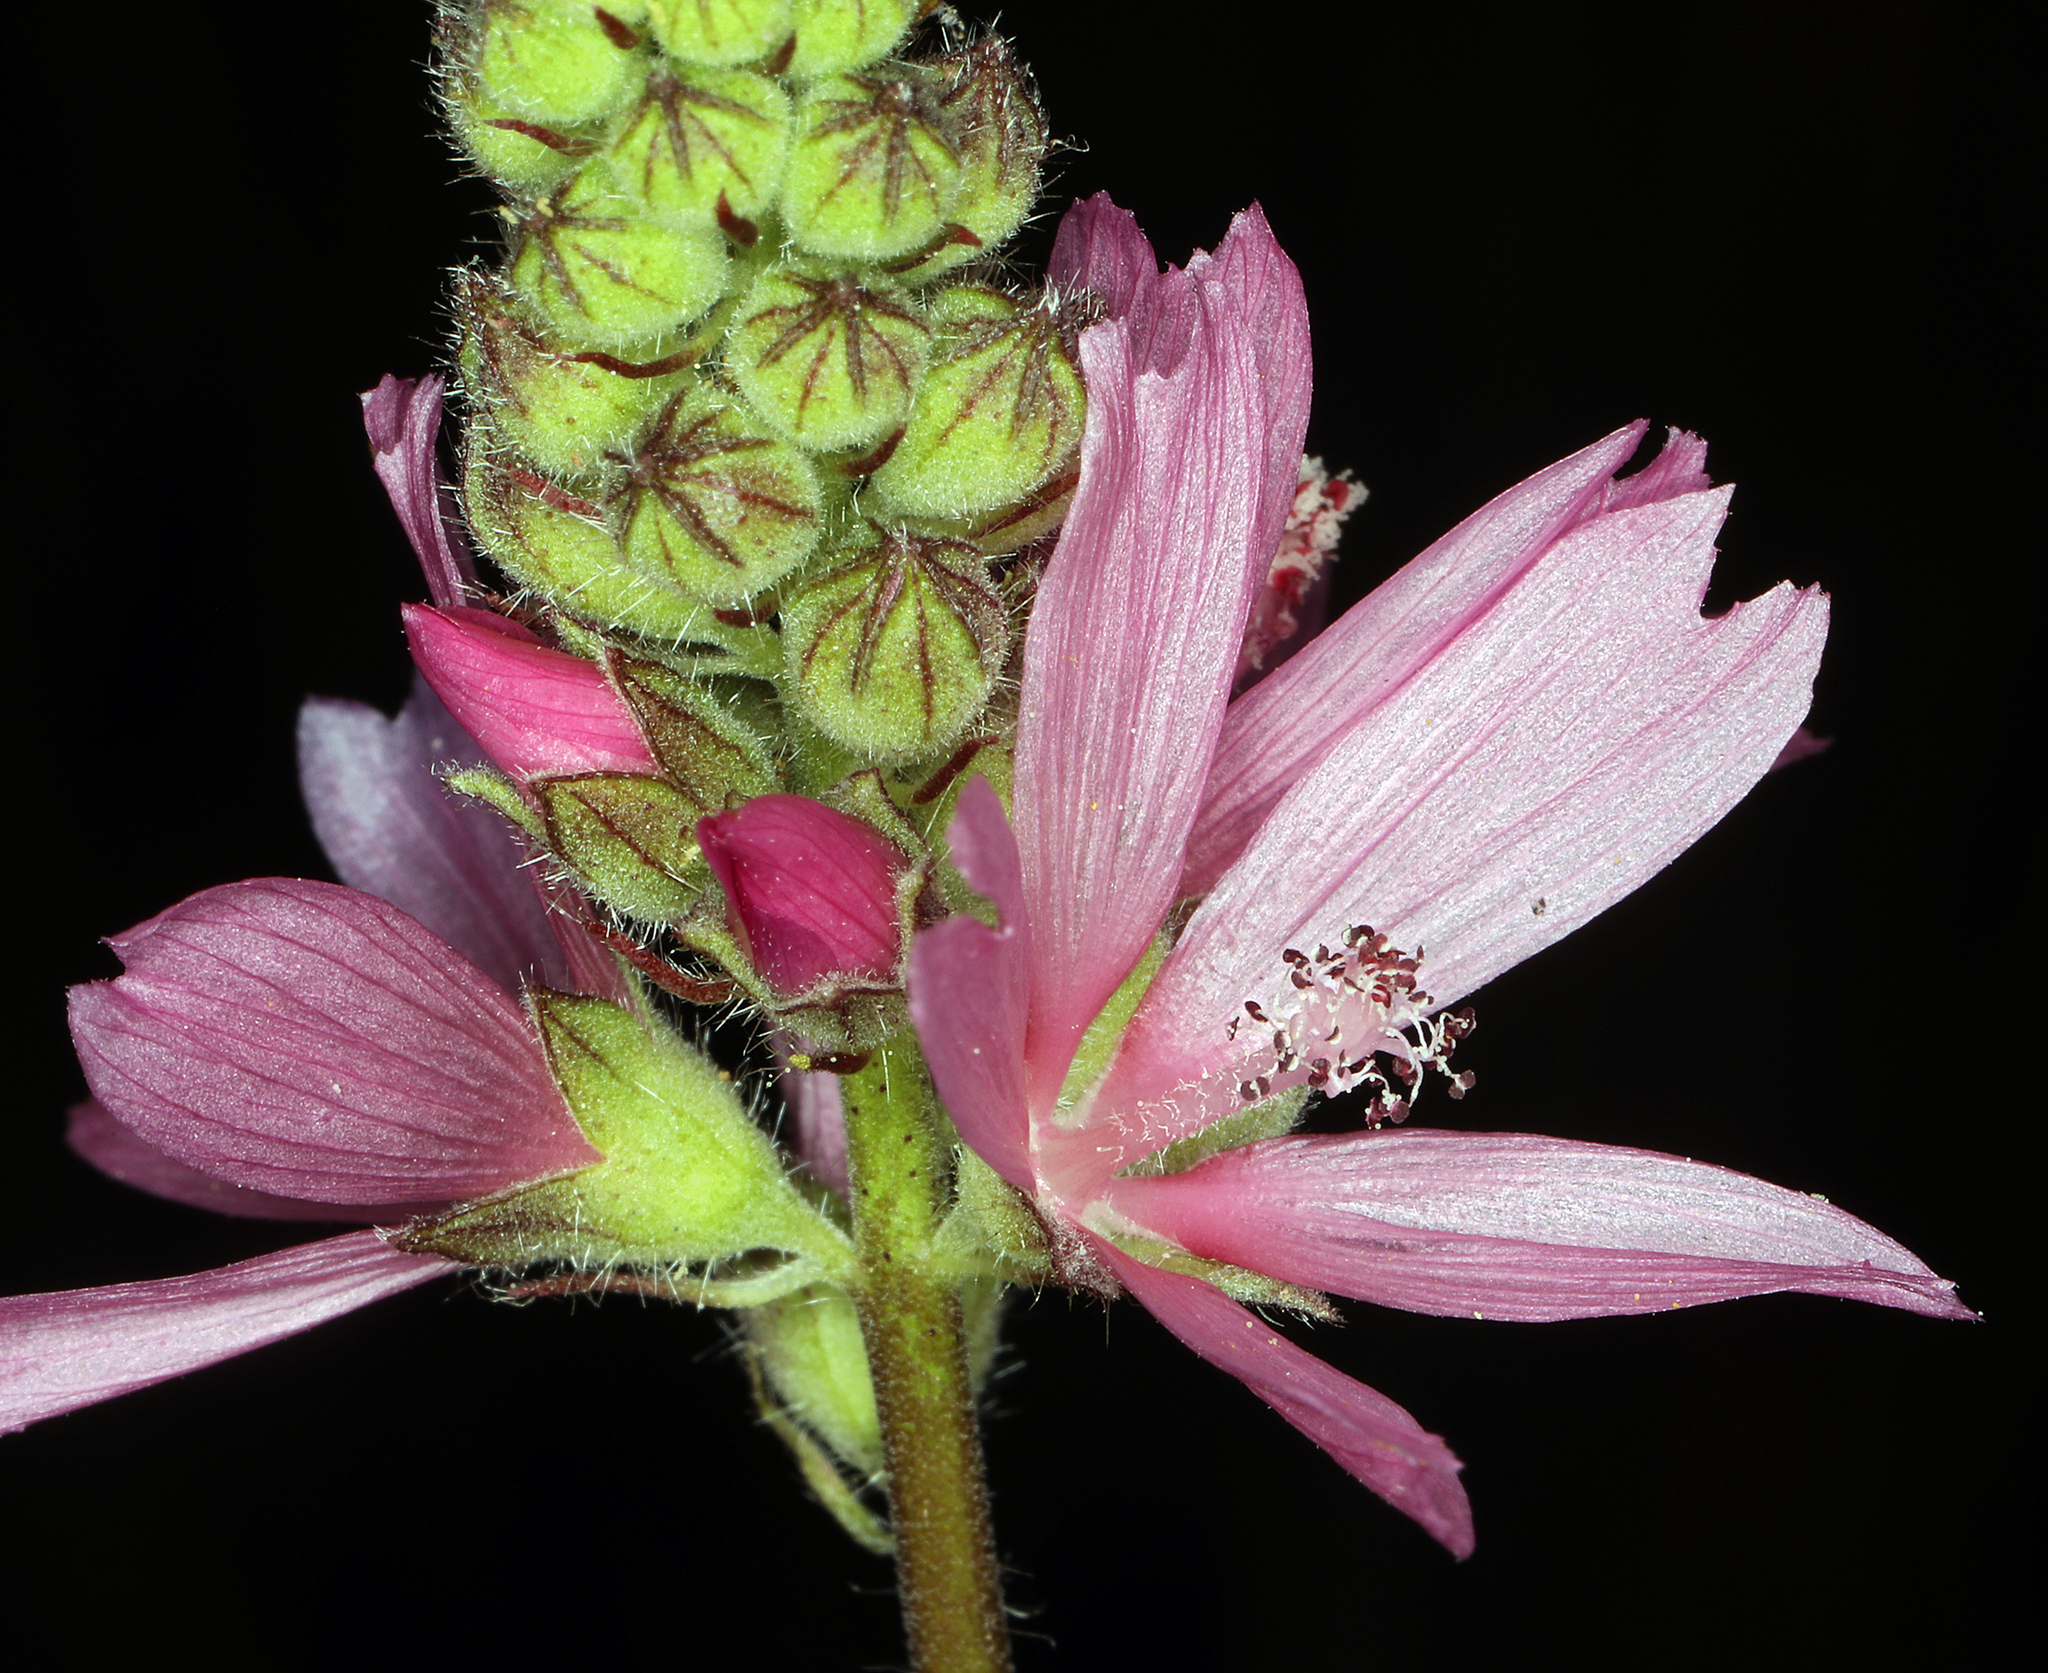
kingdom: Plantae
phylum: Tracheophyta
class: Magnoliopsida
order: Malvales
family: Malvaceae
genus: Sidalcea
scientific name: Sidalcea oregana
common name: Oregon checker-mallow
